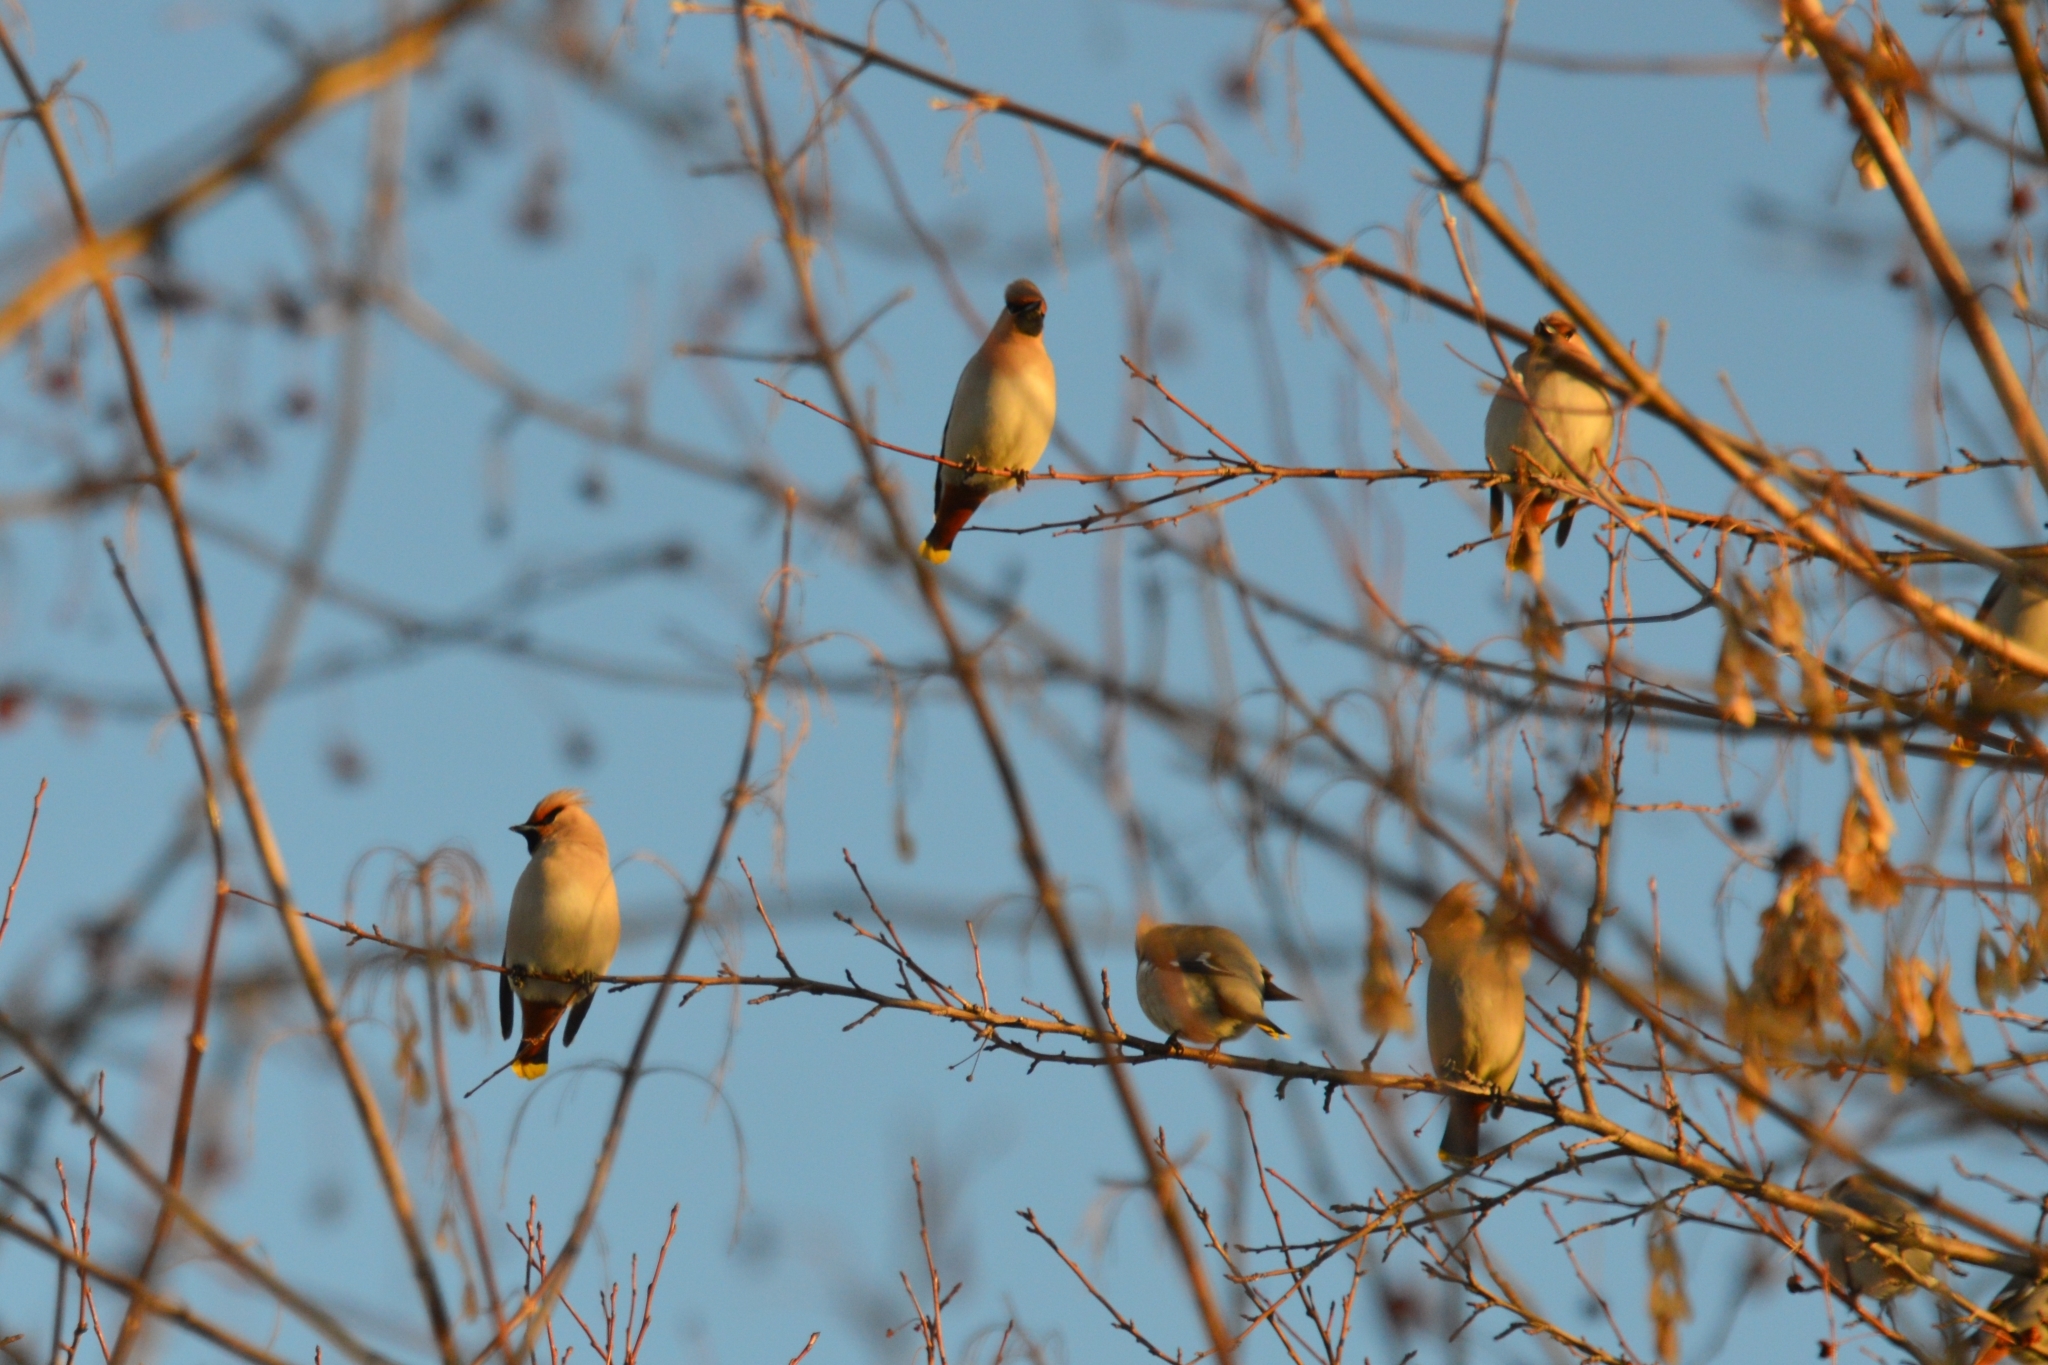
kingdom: Animalia
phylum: Chordata
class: Aves
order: Passeriformes
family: Bombycillidae
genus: Bombycilla
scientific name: Bombycilla garrulus
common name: Bohemian waxwing
